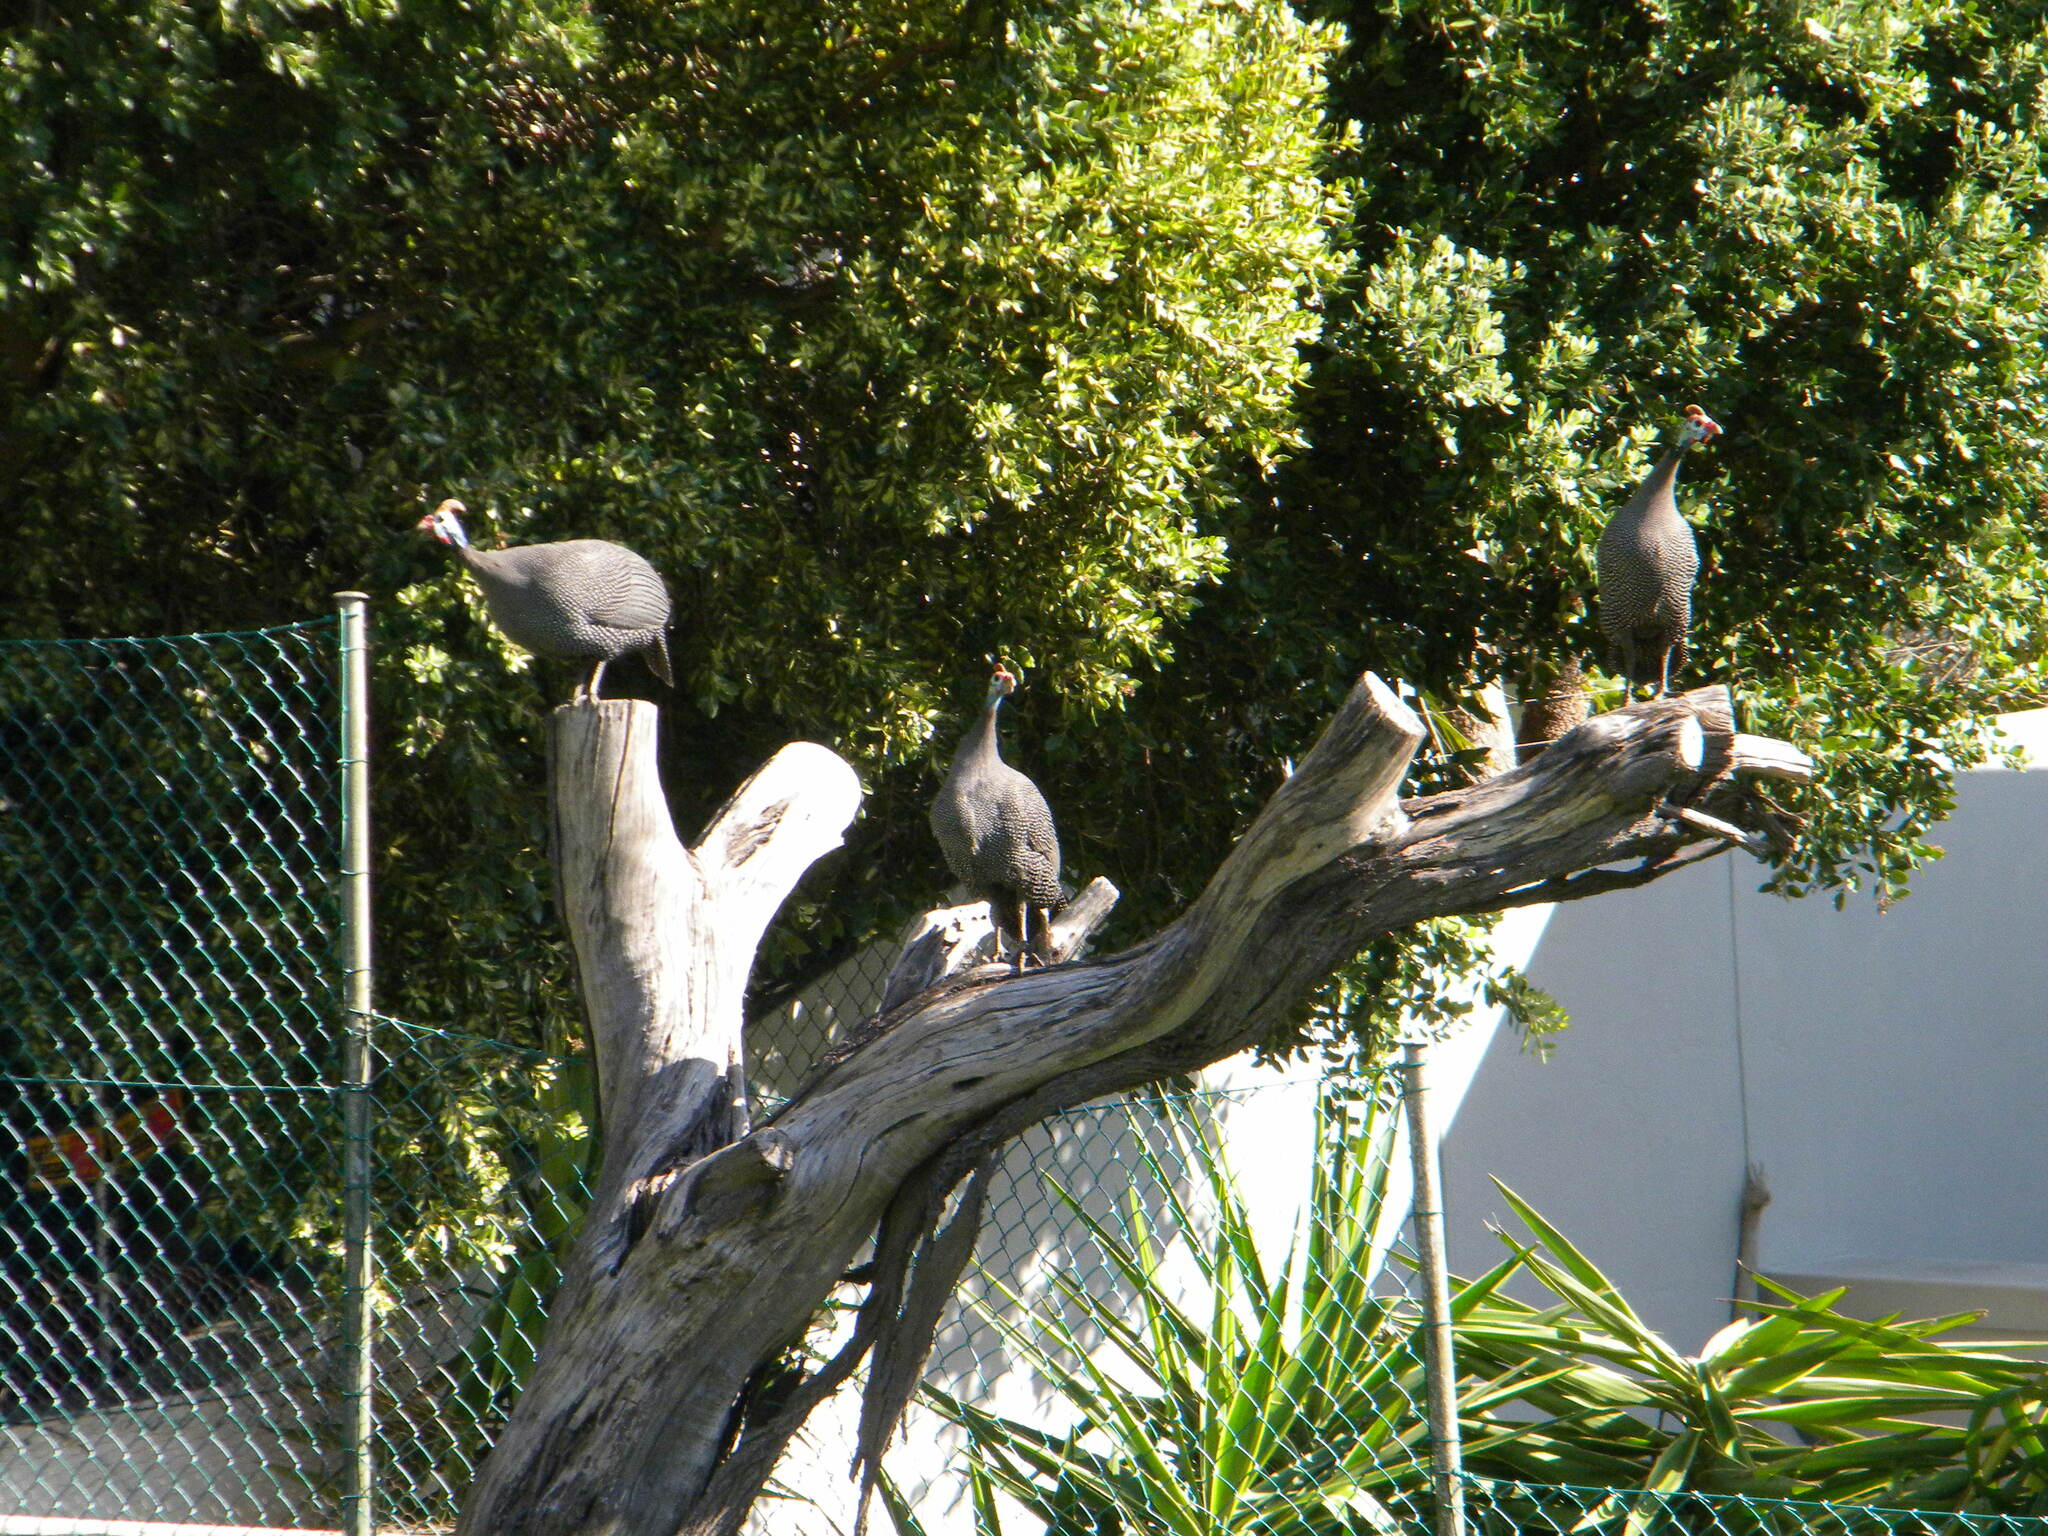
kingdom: Animalia
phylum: Chordata
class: Aves
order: Galliformes
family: Numididae
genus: Numida
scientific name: Numida meleagris
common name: Helmeted guineafowl
